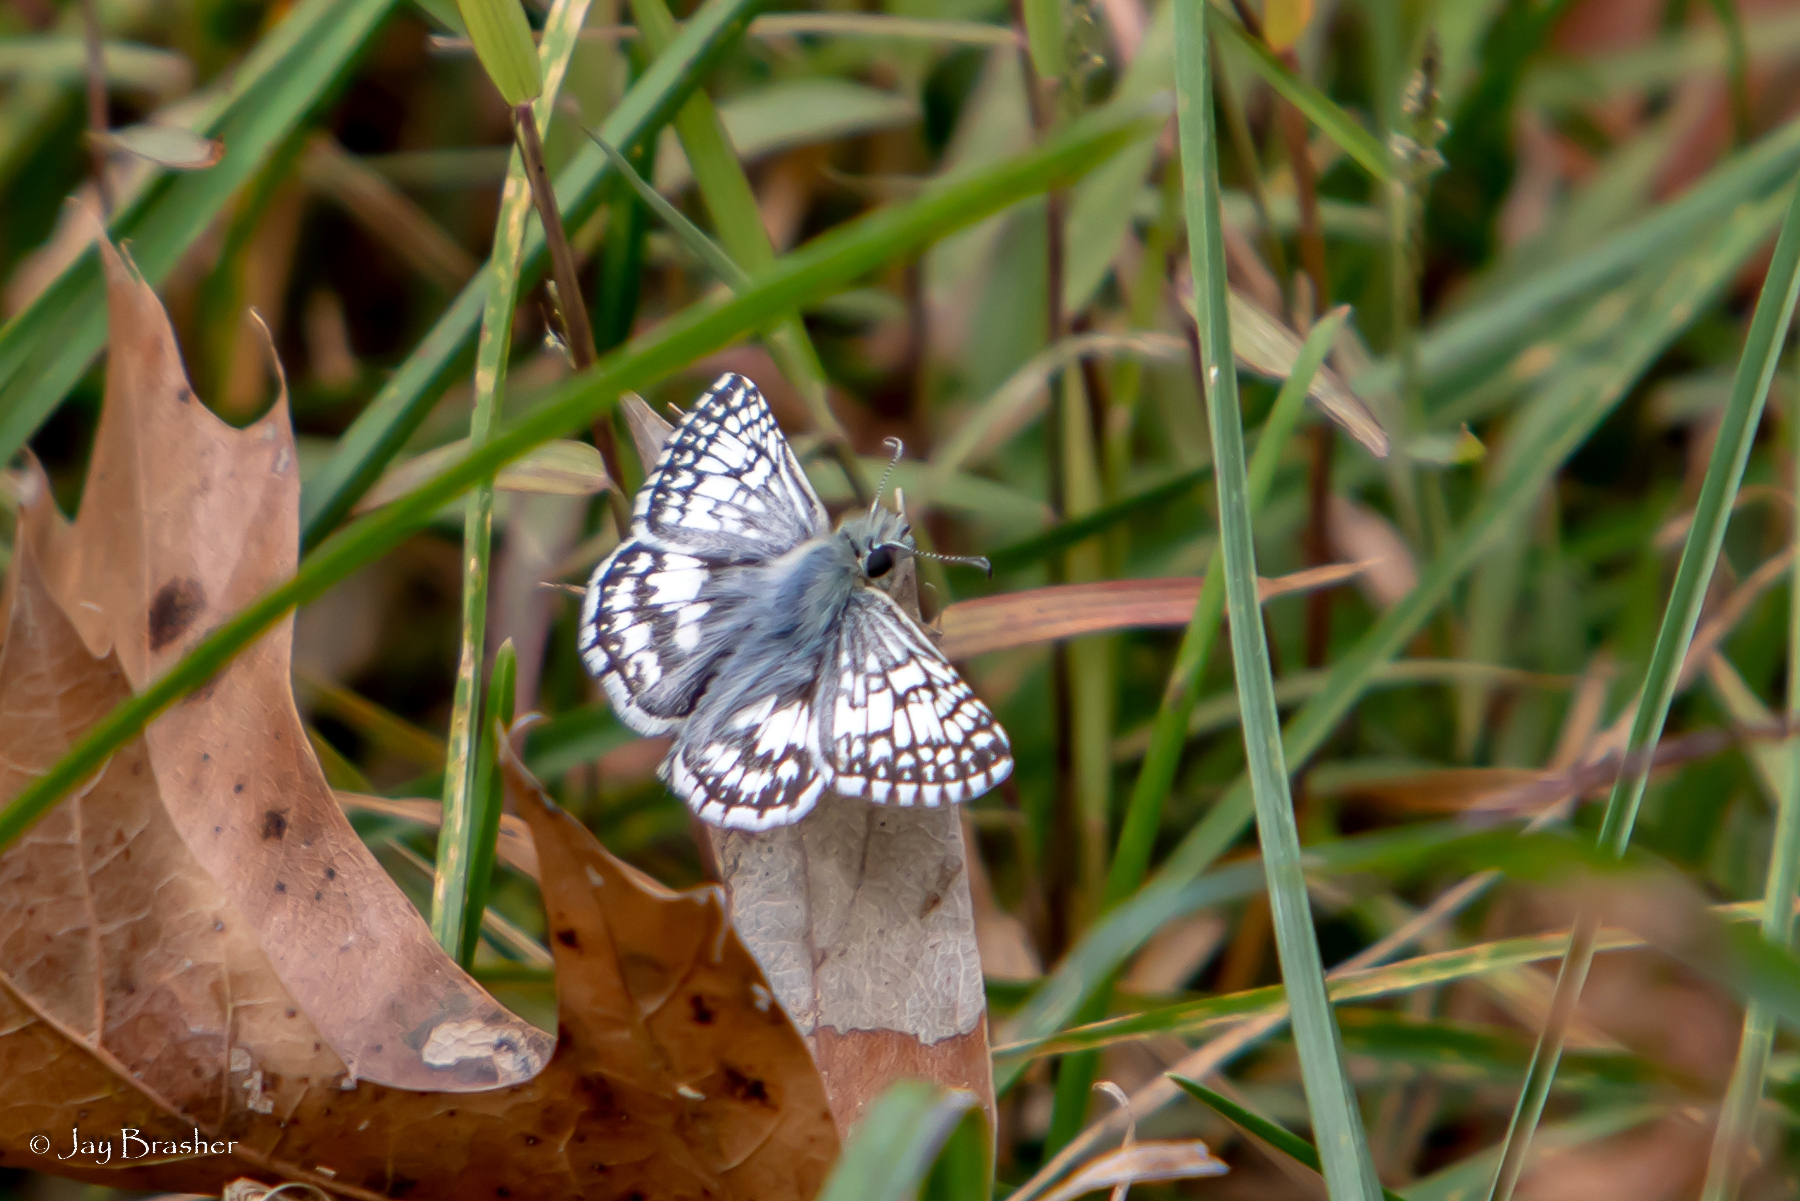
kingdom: Animalia
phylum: Arthropoda
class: Insecta
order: Lepidoptera
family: Hesperiidae
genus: Burnsius
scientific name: Burnsius communis
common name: Common checkered-skipper
